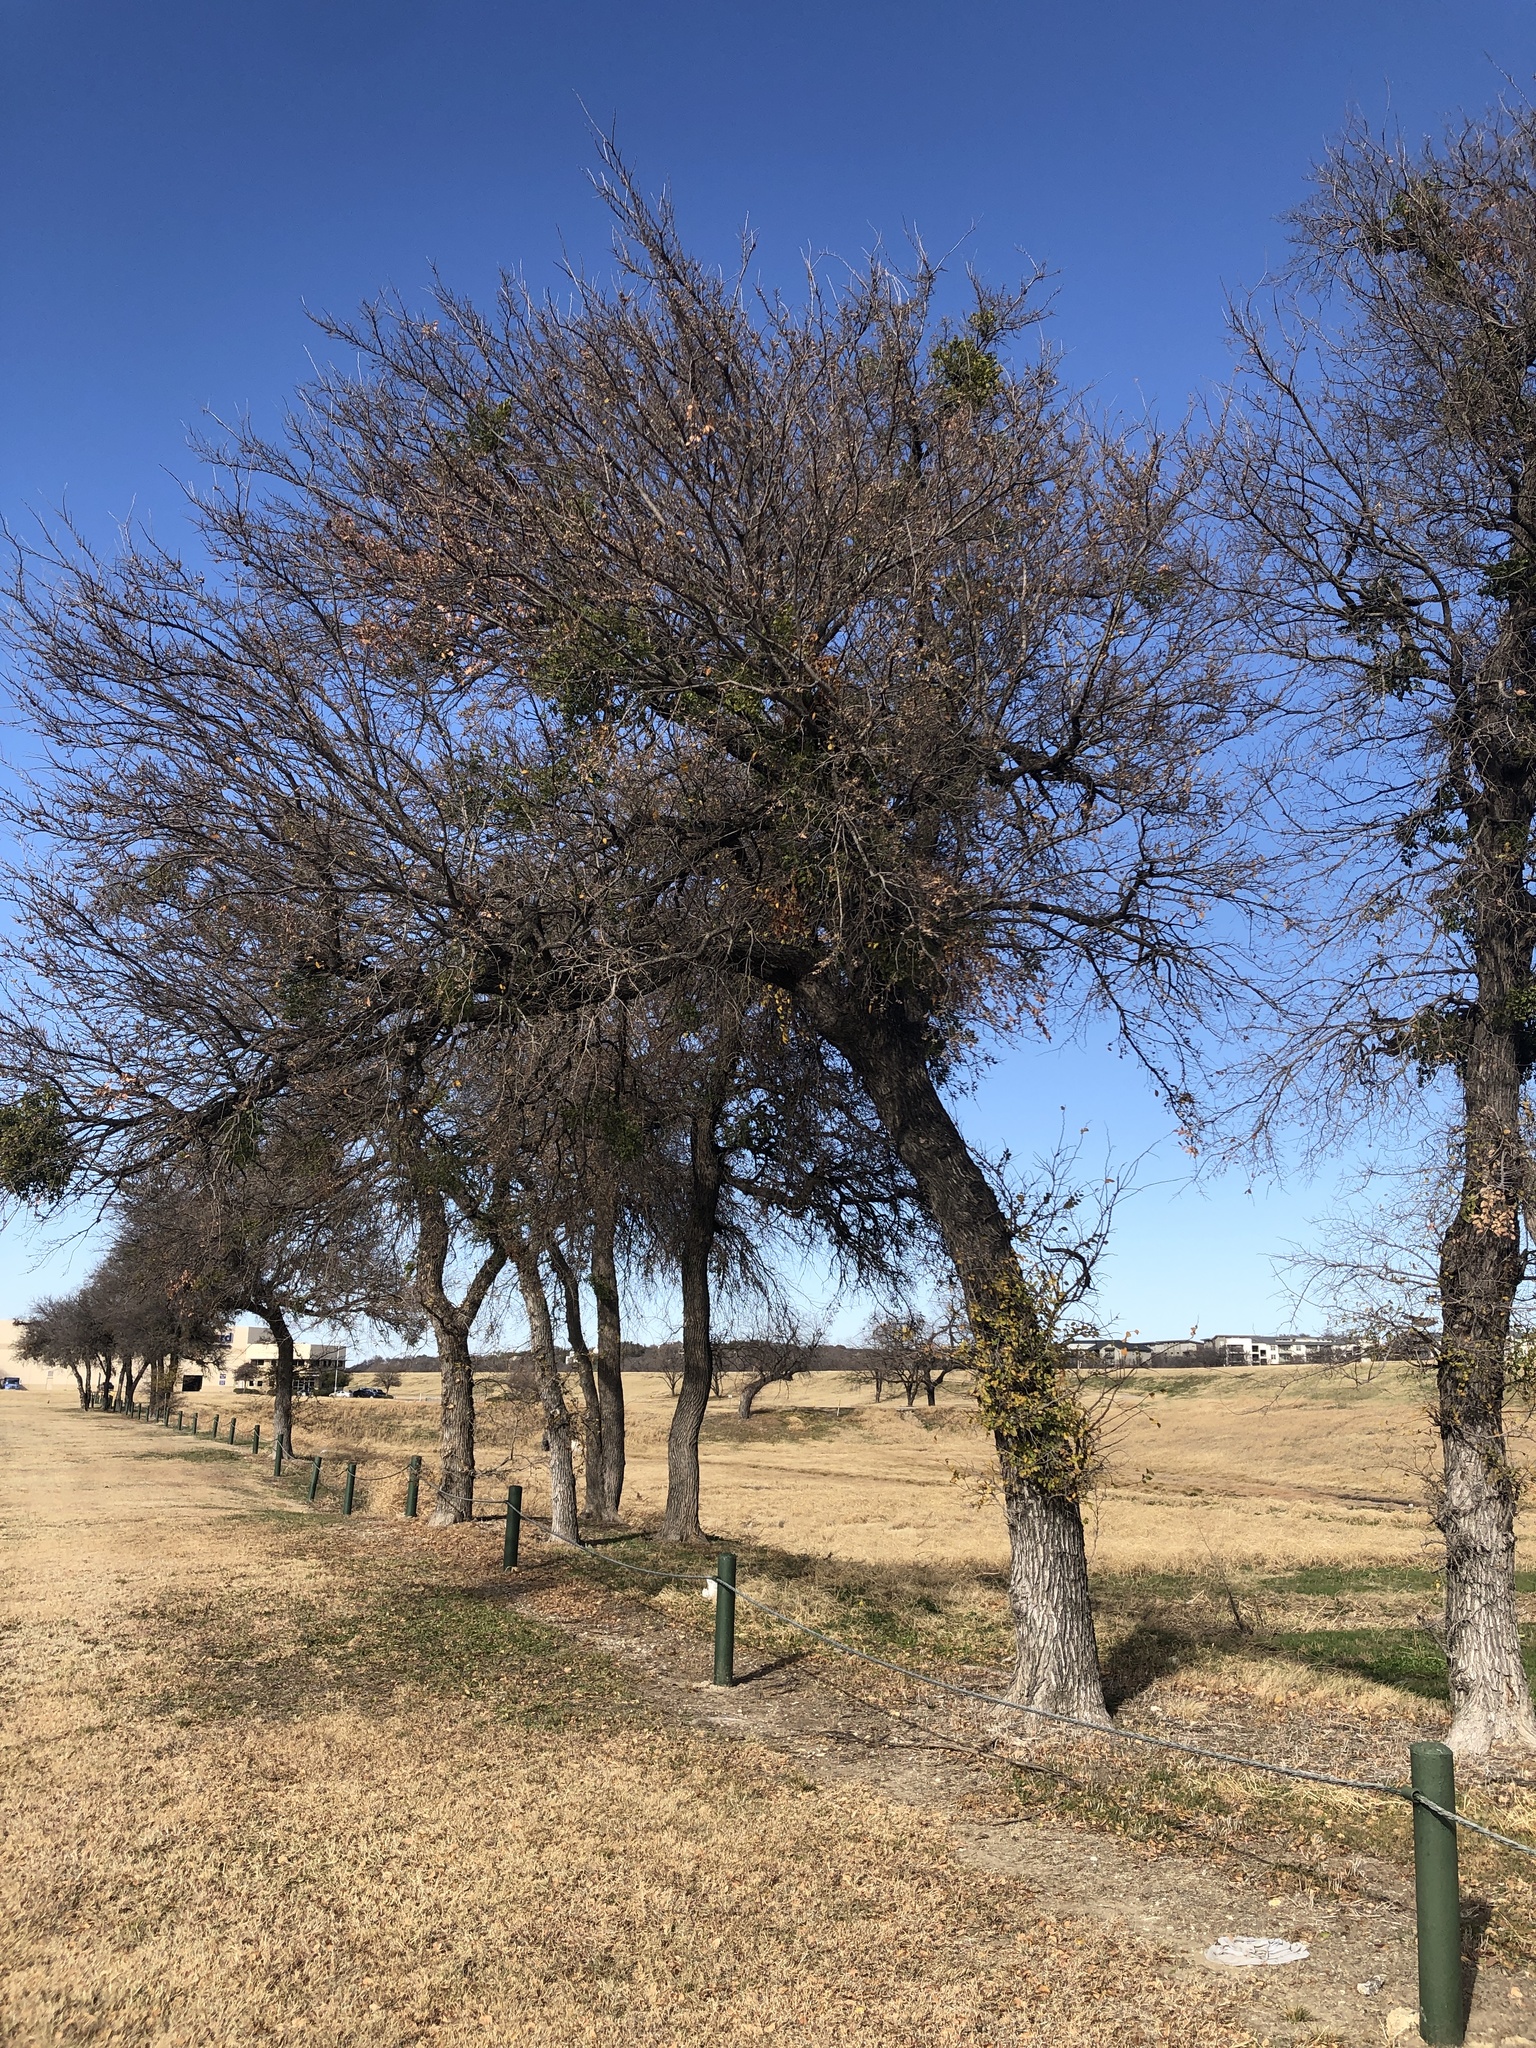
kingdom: Plantae
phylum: Tracheophyta
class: Magnoliopsida
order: Rosales
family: Ulmaceae
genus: Ulmus
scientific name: Ulmus crassifolia
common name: Basket elm
